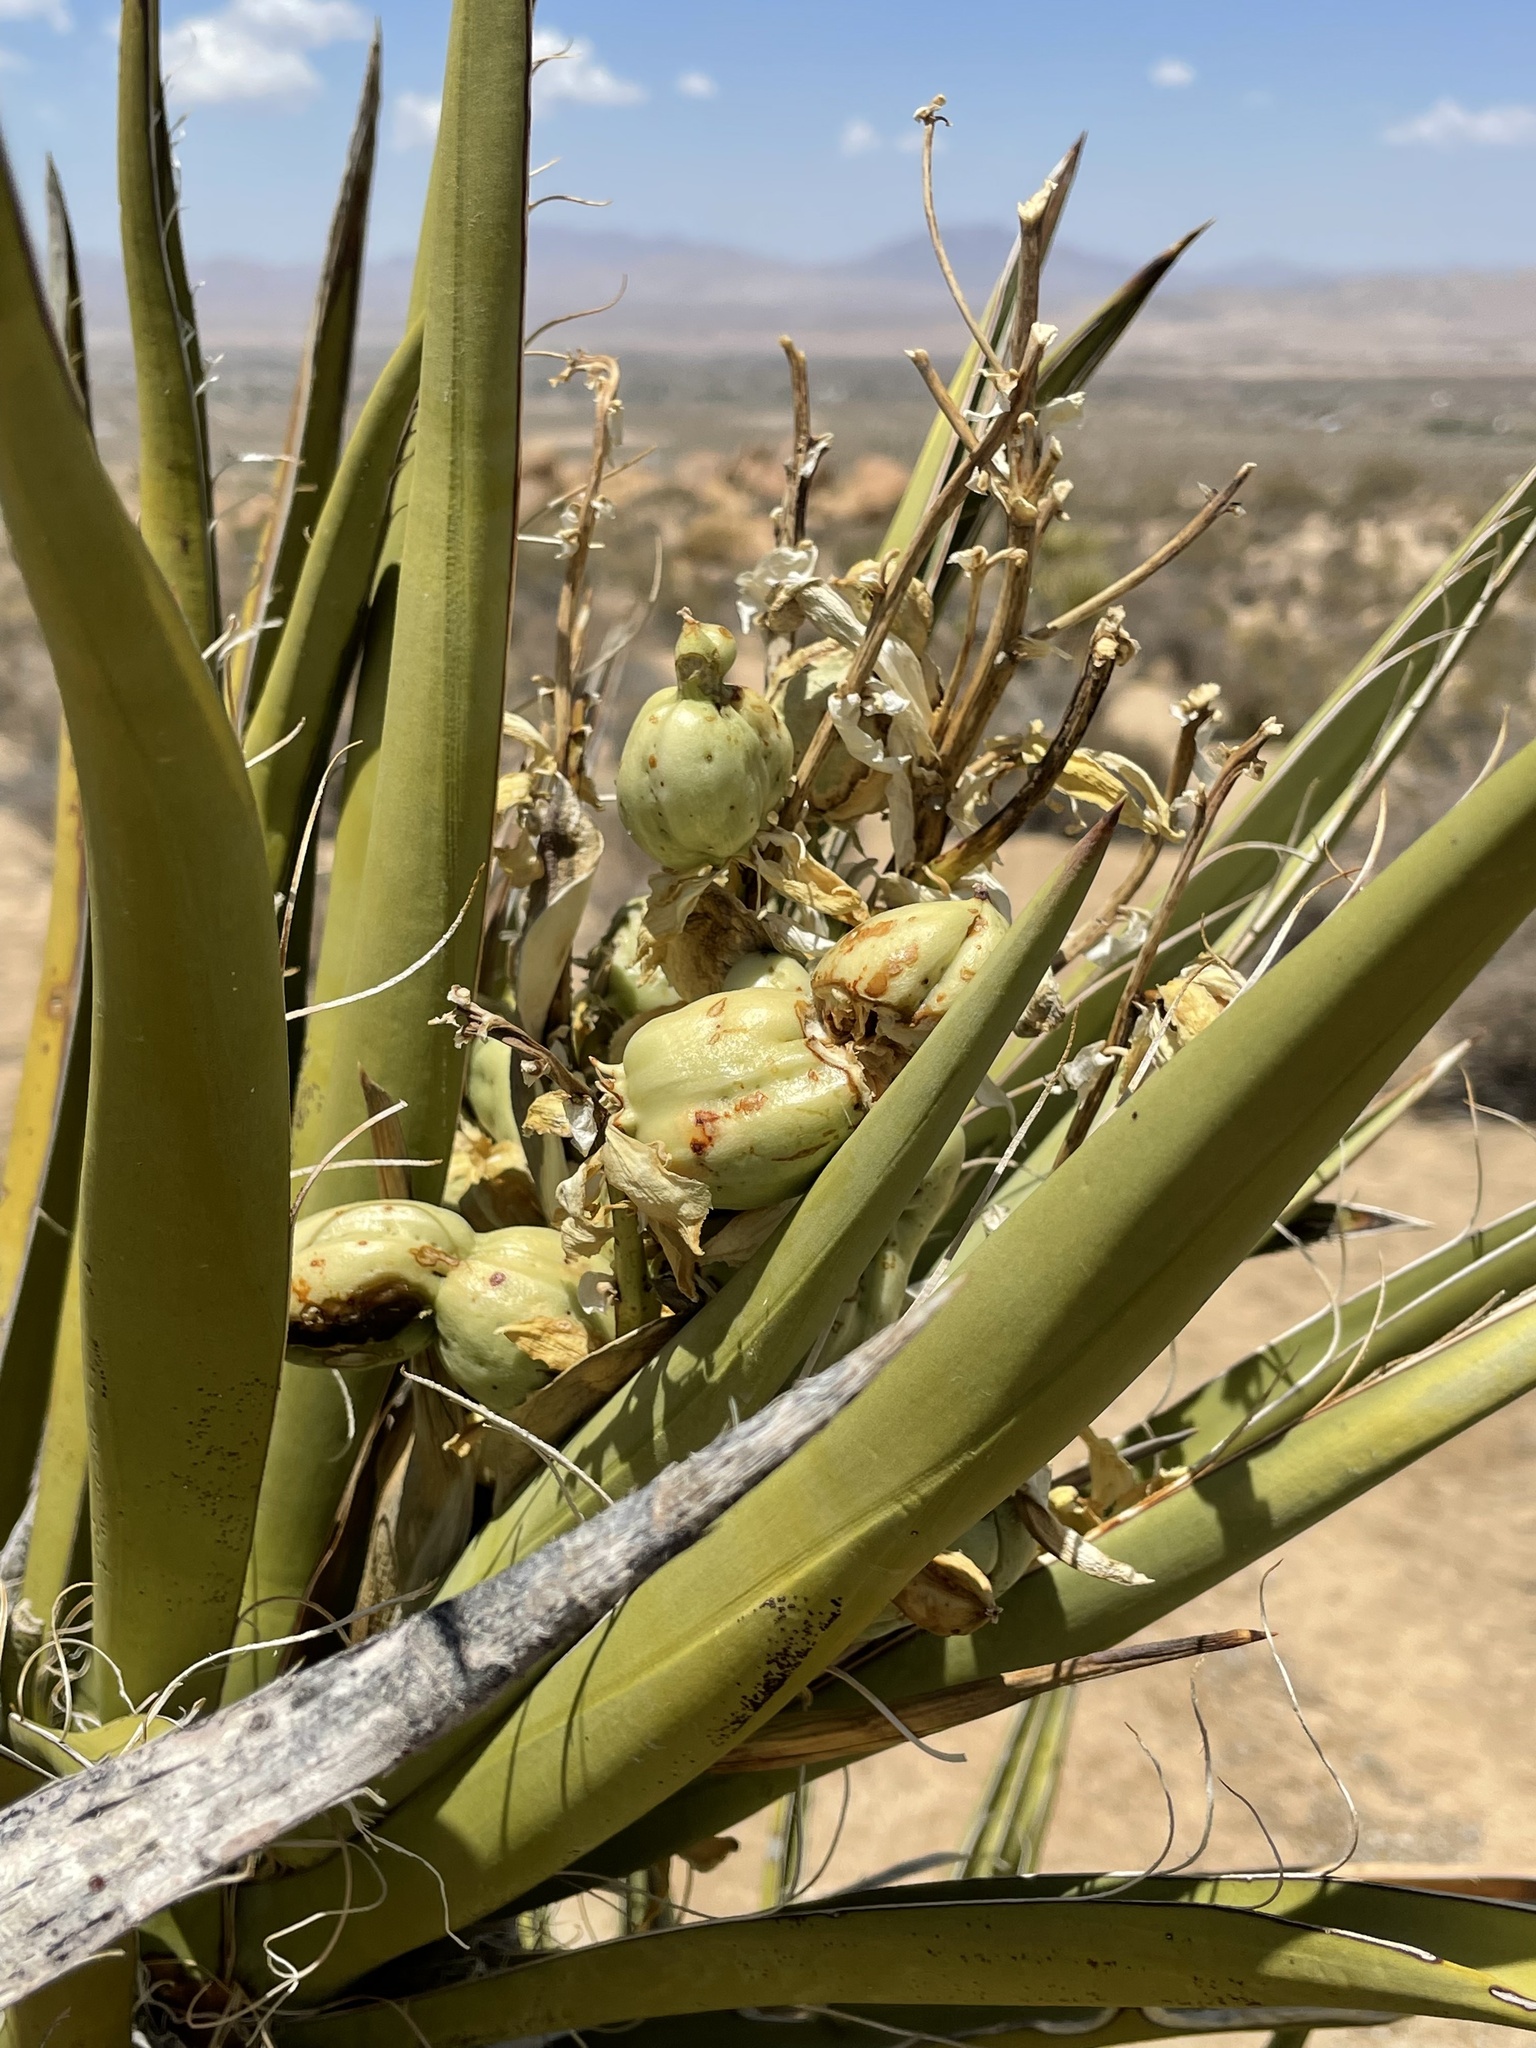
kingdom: Plantae
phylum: Tracheophyta
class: Liliopsida
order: Asparagales
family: Asparagaceae
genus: Yucca
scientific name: Yucca schidigera
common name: Mojave yucca
